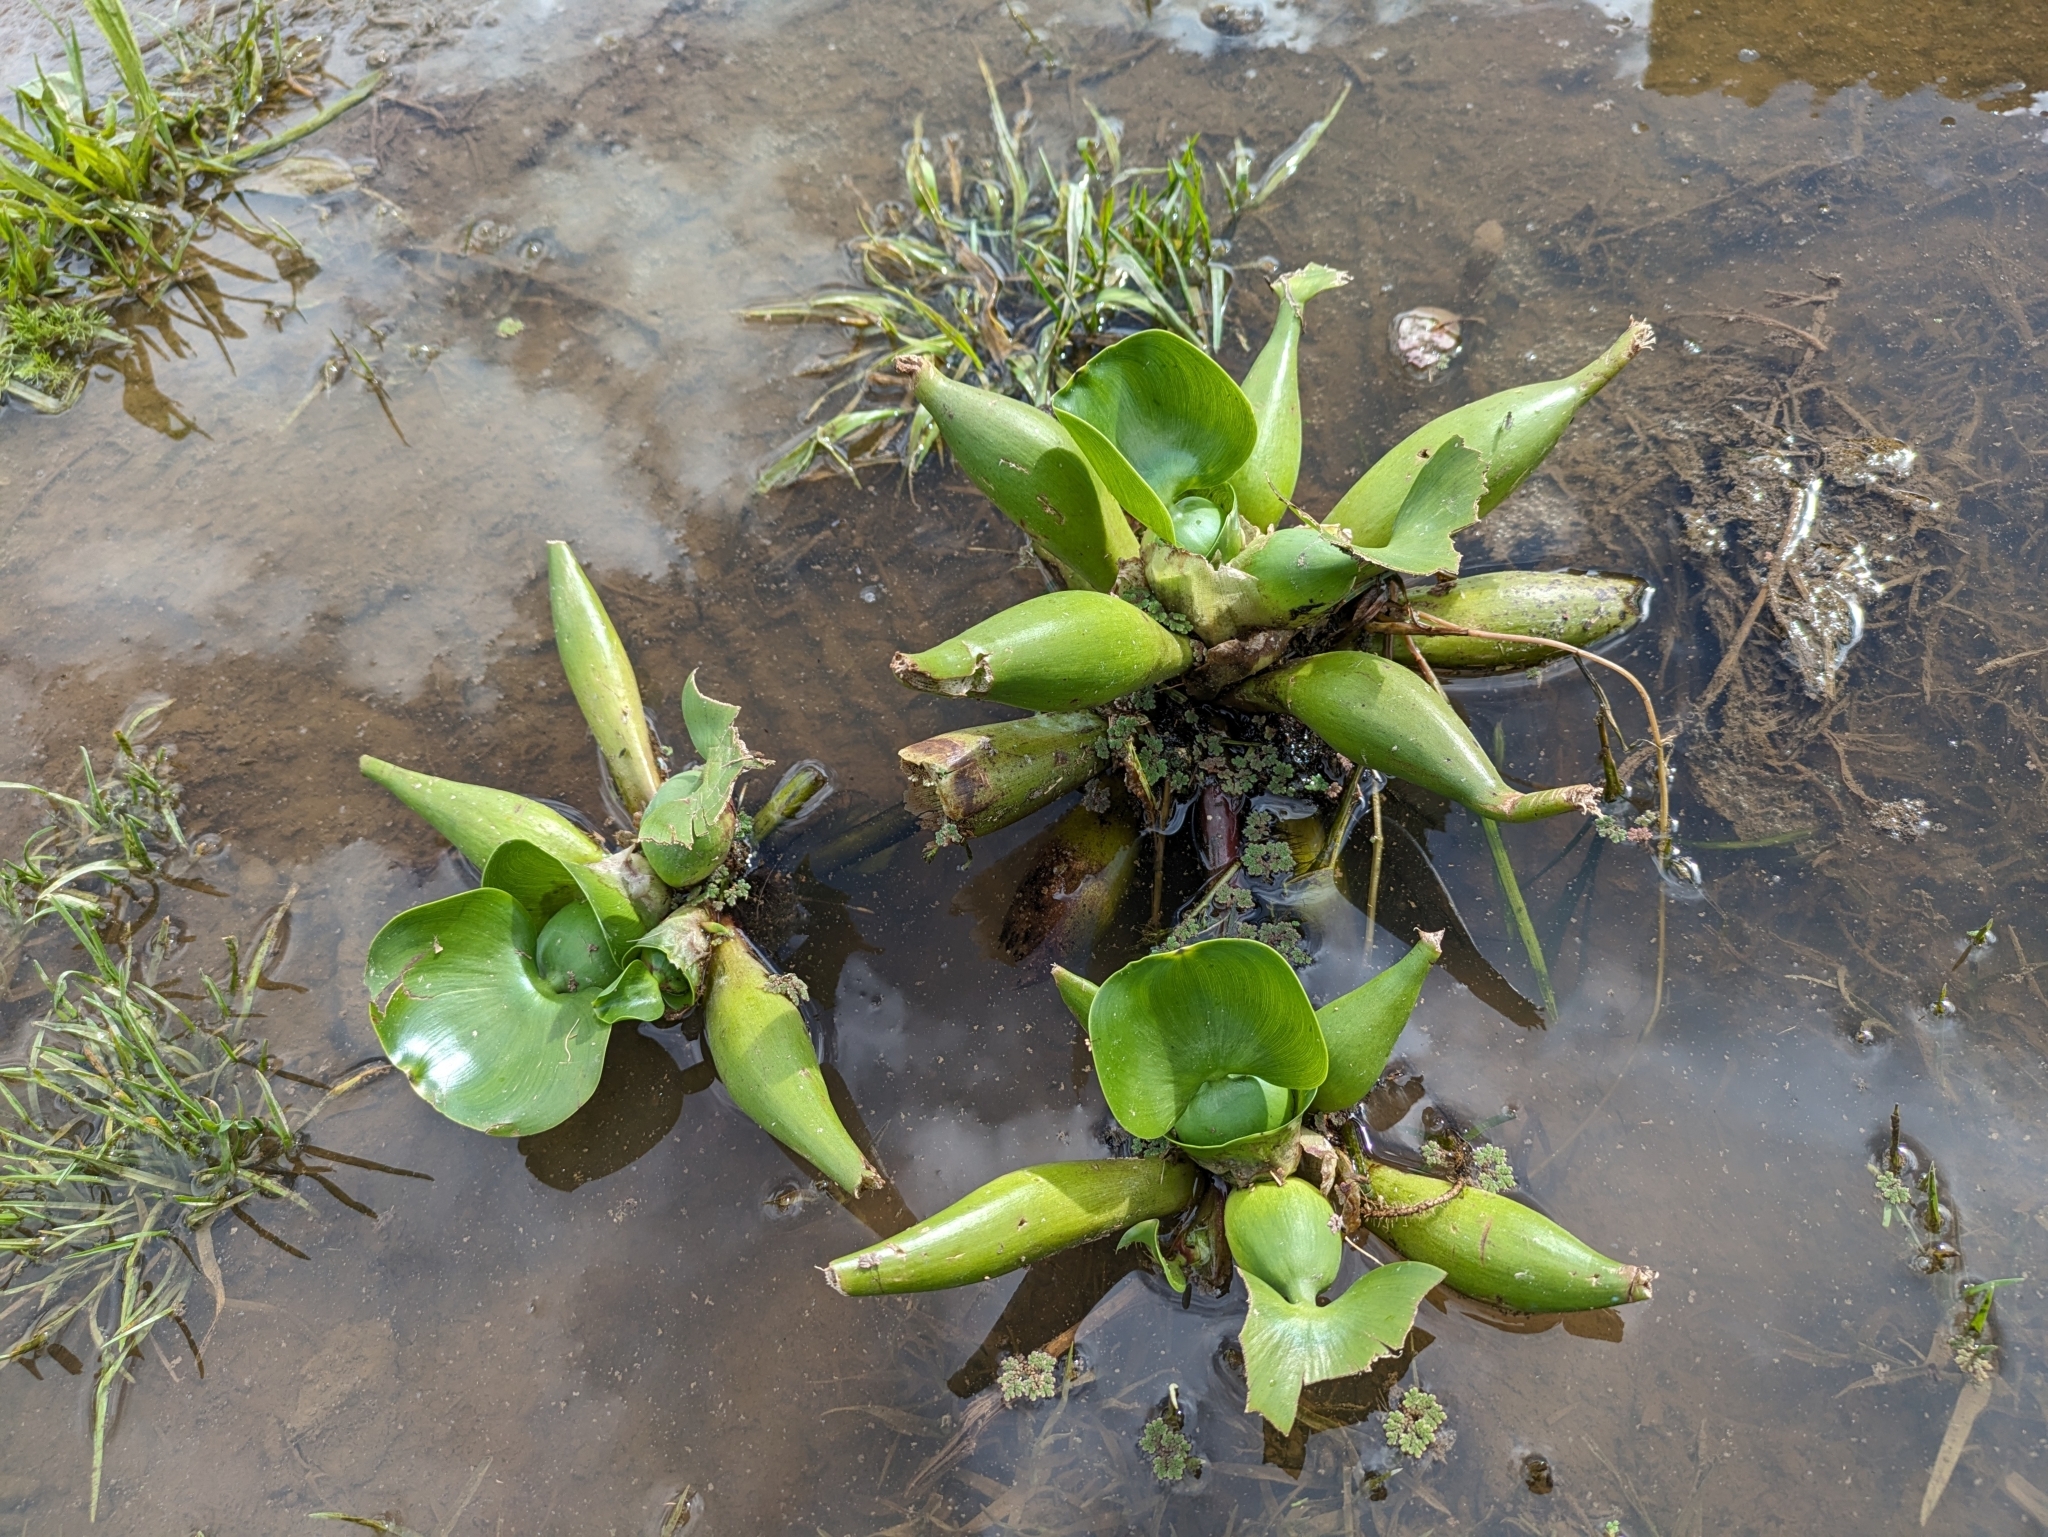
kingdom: Plantae
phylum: Tracheophyta
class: Liliopsida
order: Commelinales
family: Pontederiaceae
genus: Pontederia
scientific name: Pontederia crassipes
